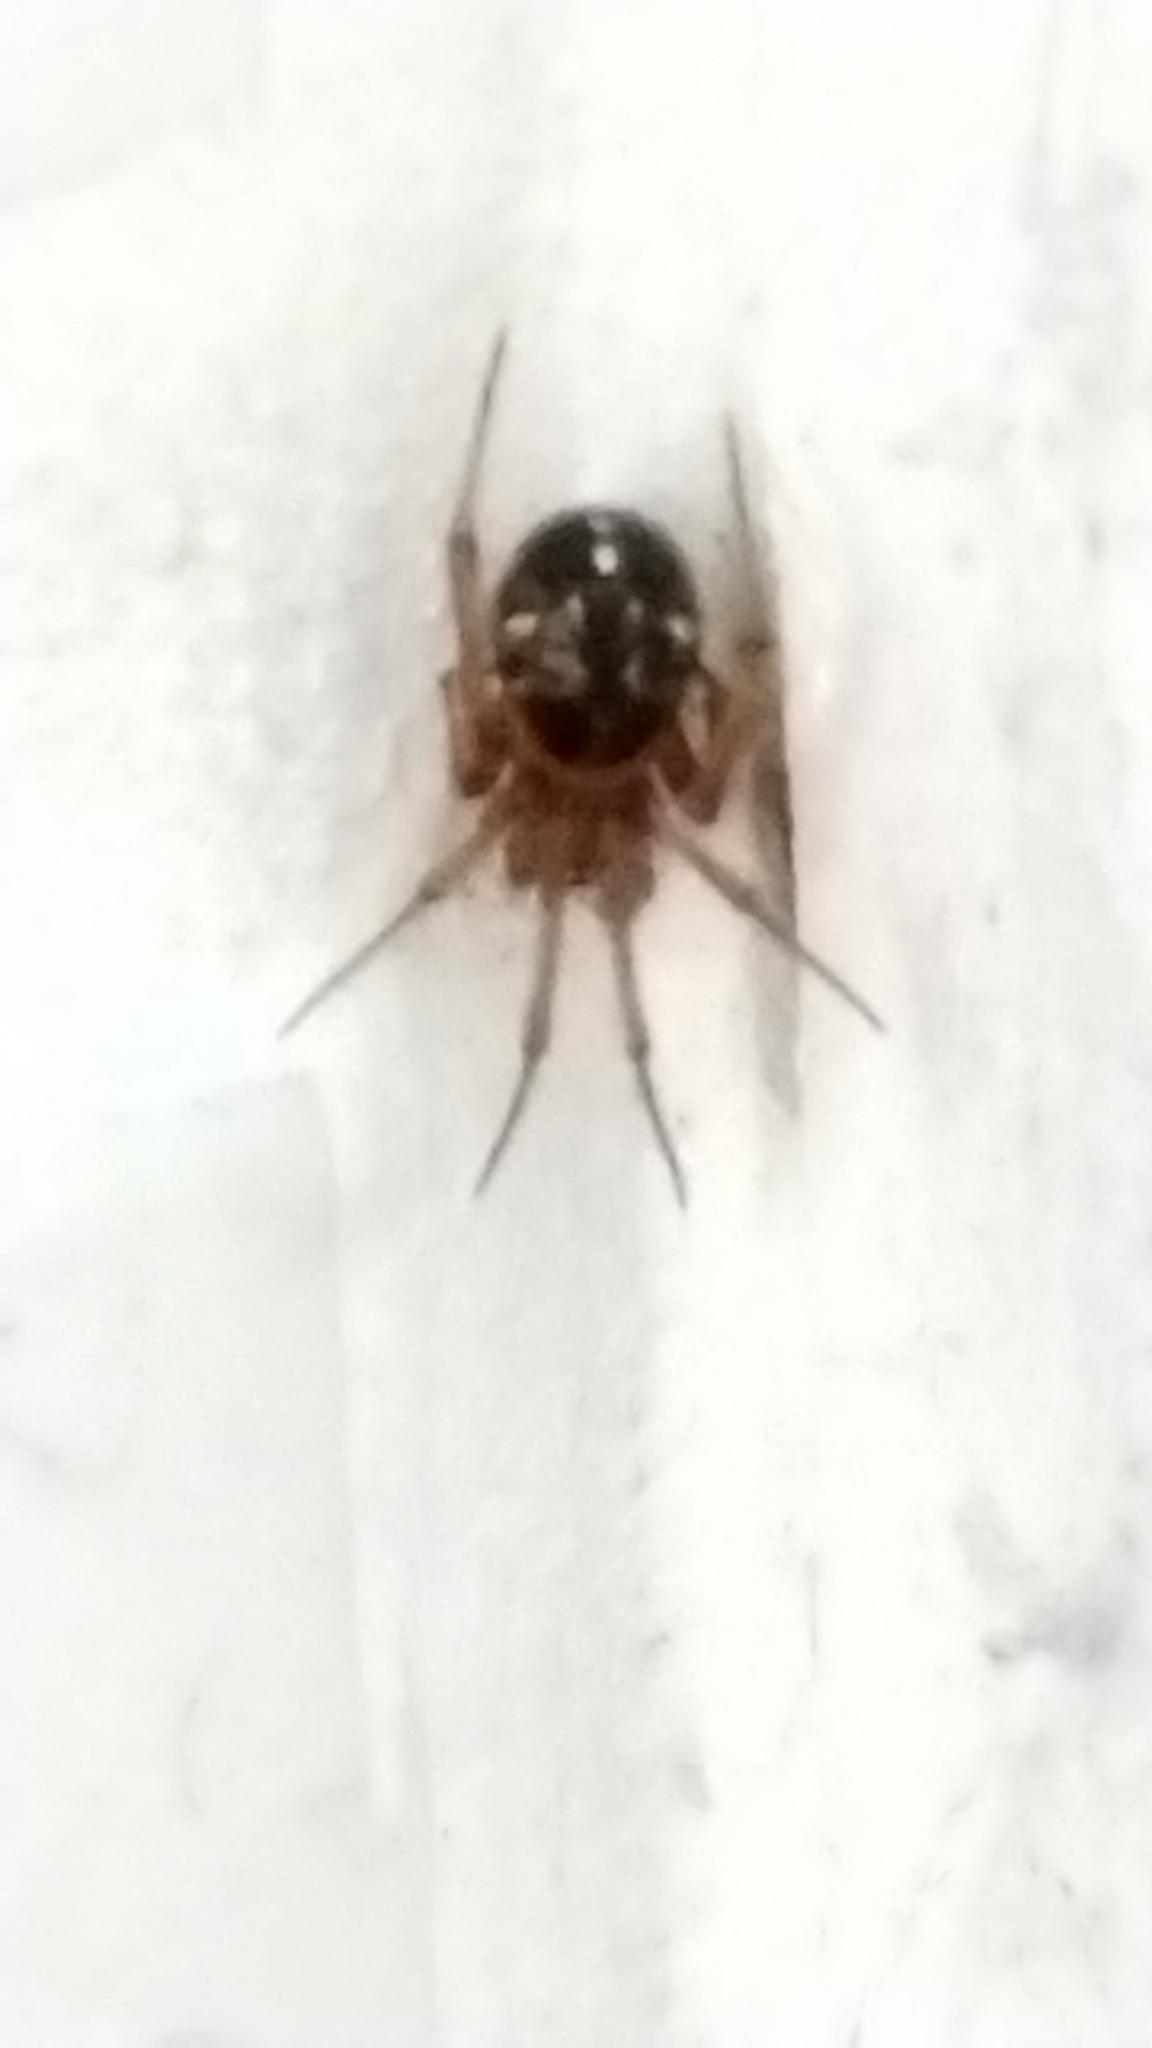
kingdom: Animalia
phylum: Arthropoda
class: Arachnida
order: Araneae
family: Theridiidae
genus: Nesticodes
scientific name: Nesticodes rufipes
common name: Cobweb spiders
